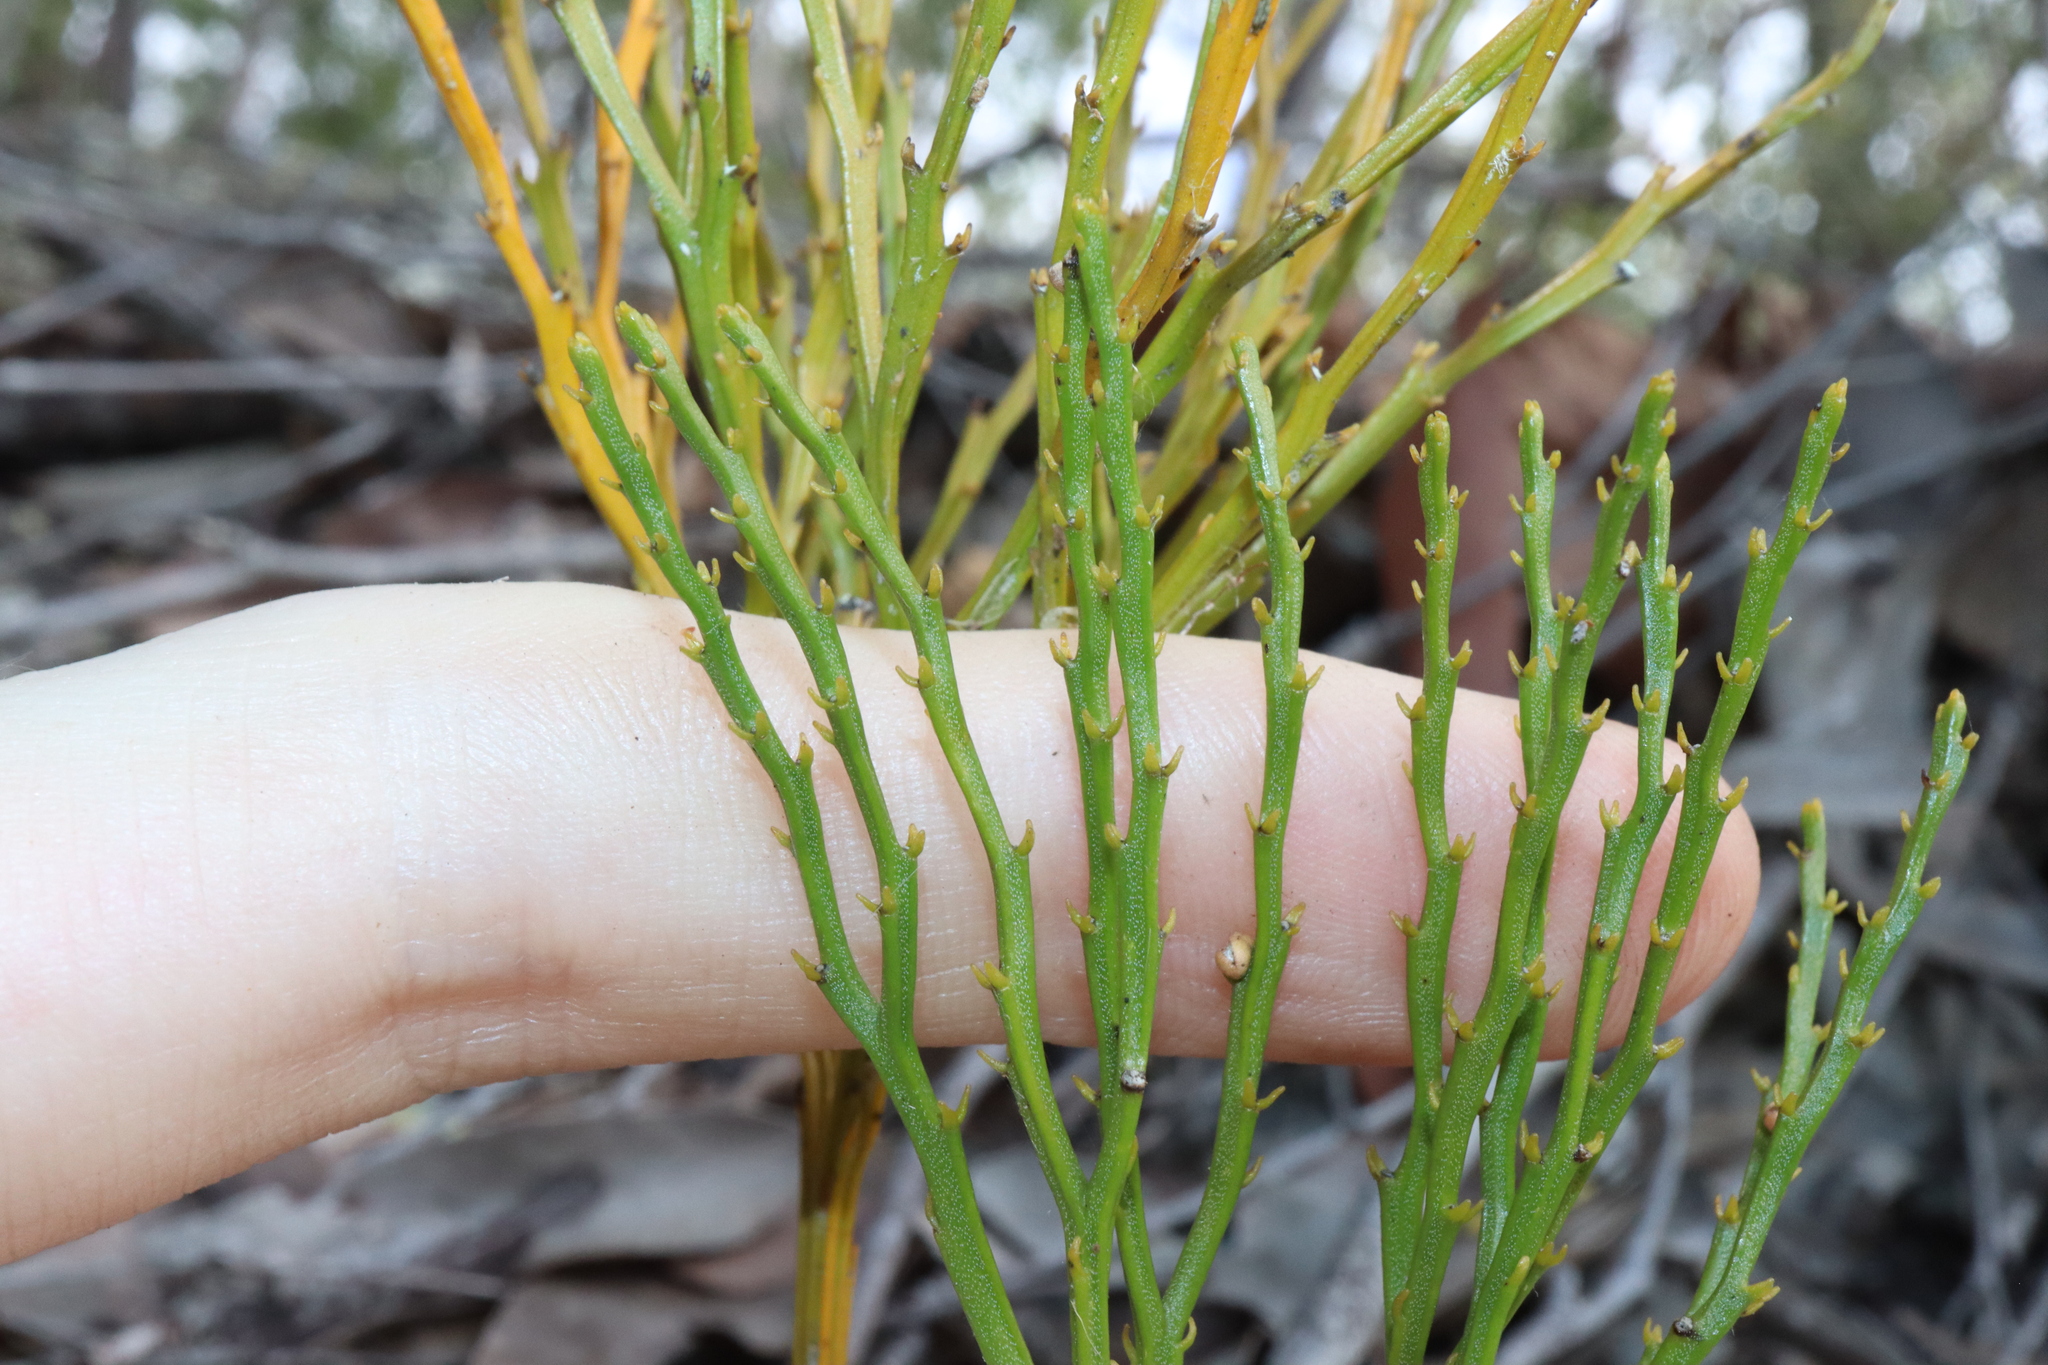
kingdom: Plantae
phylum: Tracheophyta
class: Polypodiopsida
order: Psilotales
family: Psilotaceae
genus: Psilotum
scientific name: Psilotum nudum
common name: Skeleton fork fern
